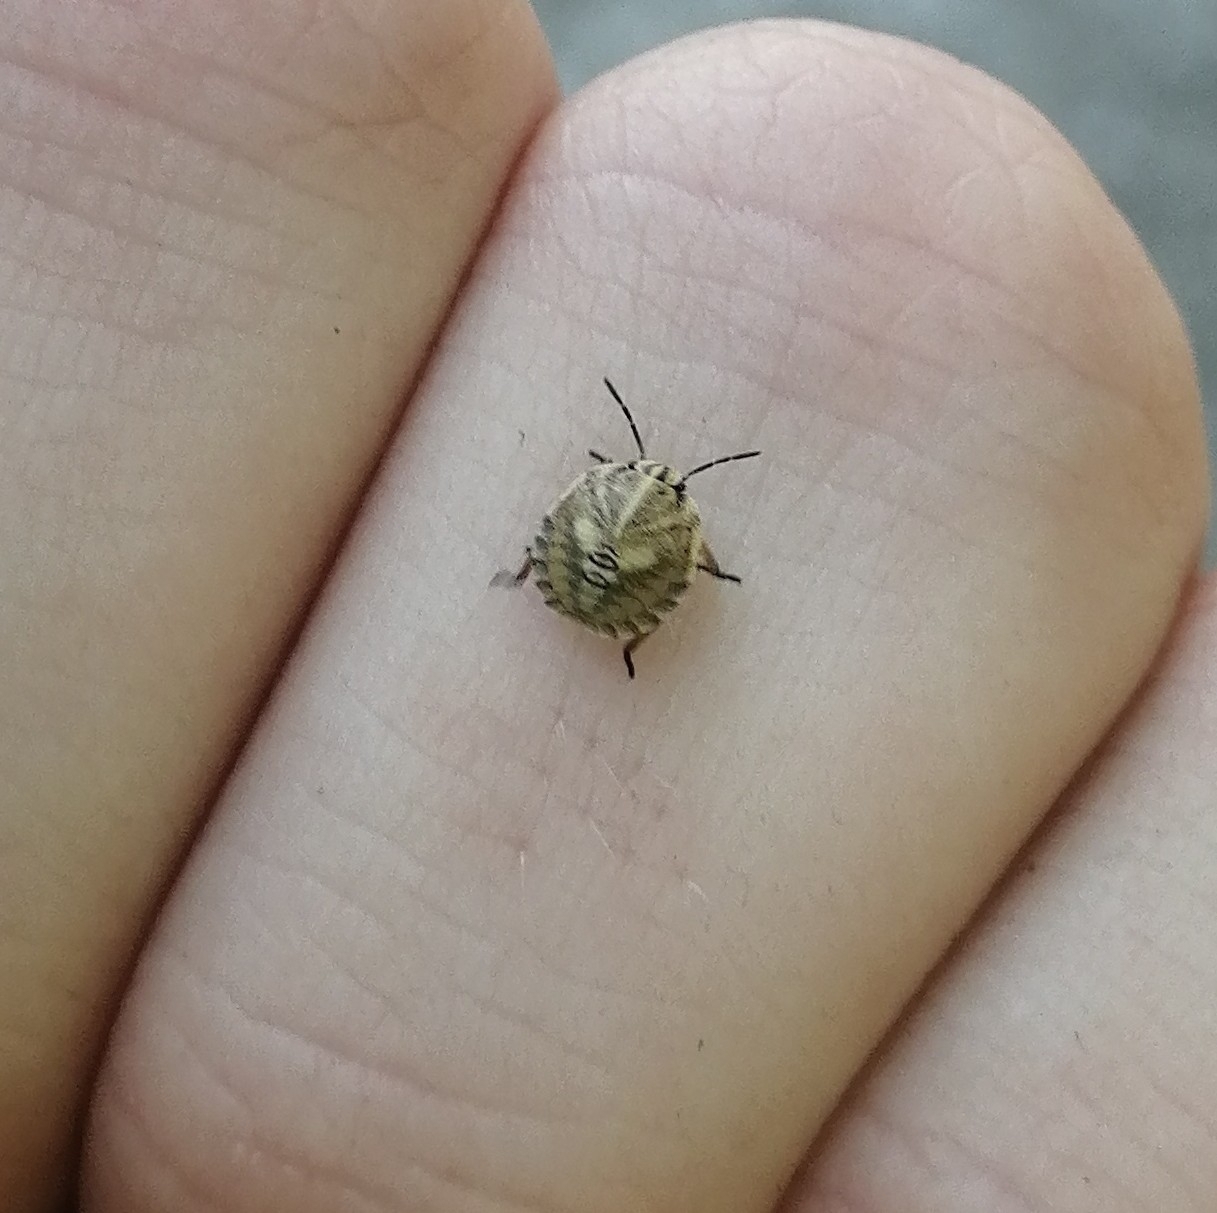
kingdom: Animalia
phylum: Arthropoda
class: Insecta
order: Hemiptera
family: Pentatomidae
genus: Graphosoma
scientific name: Graphosoma italicum
